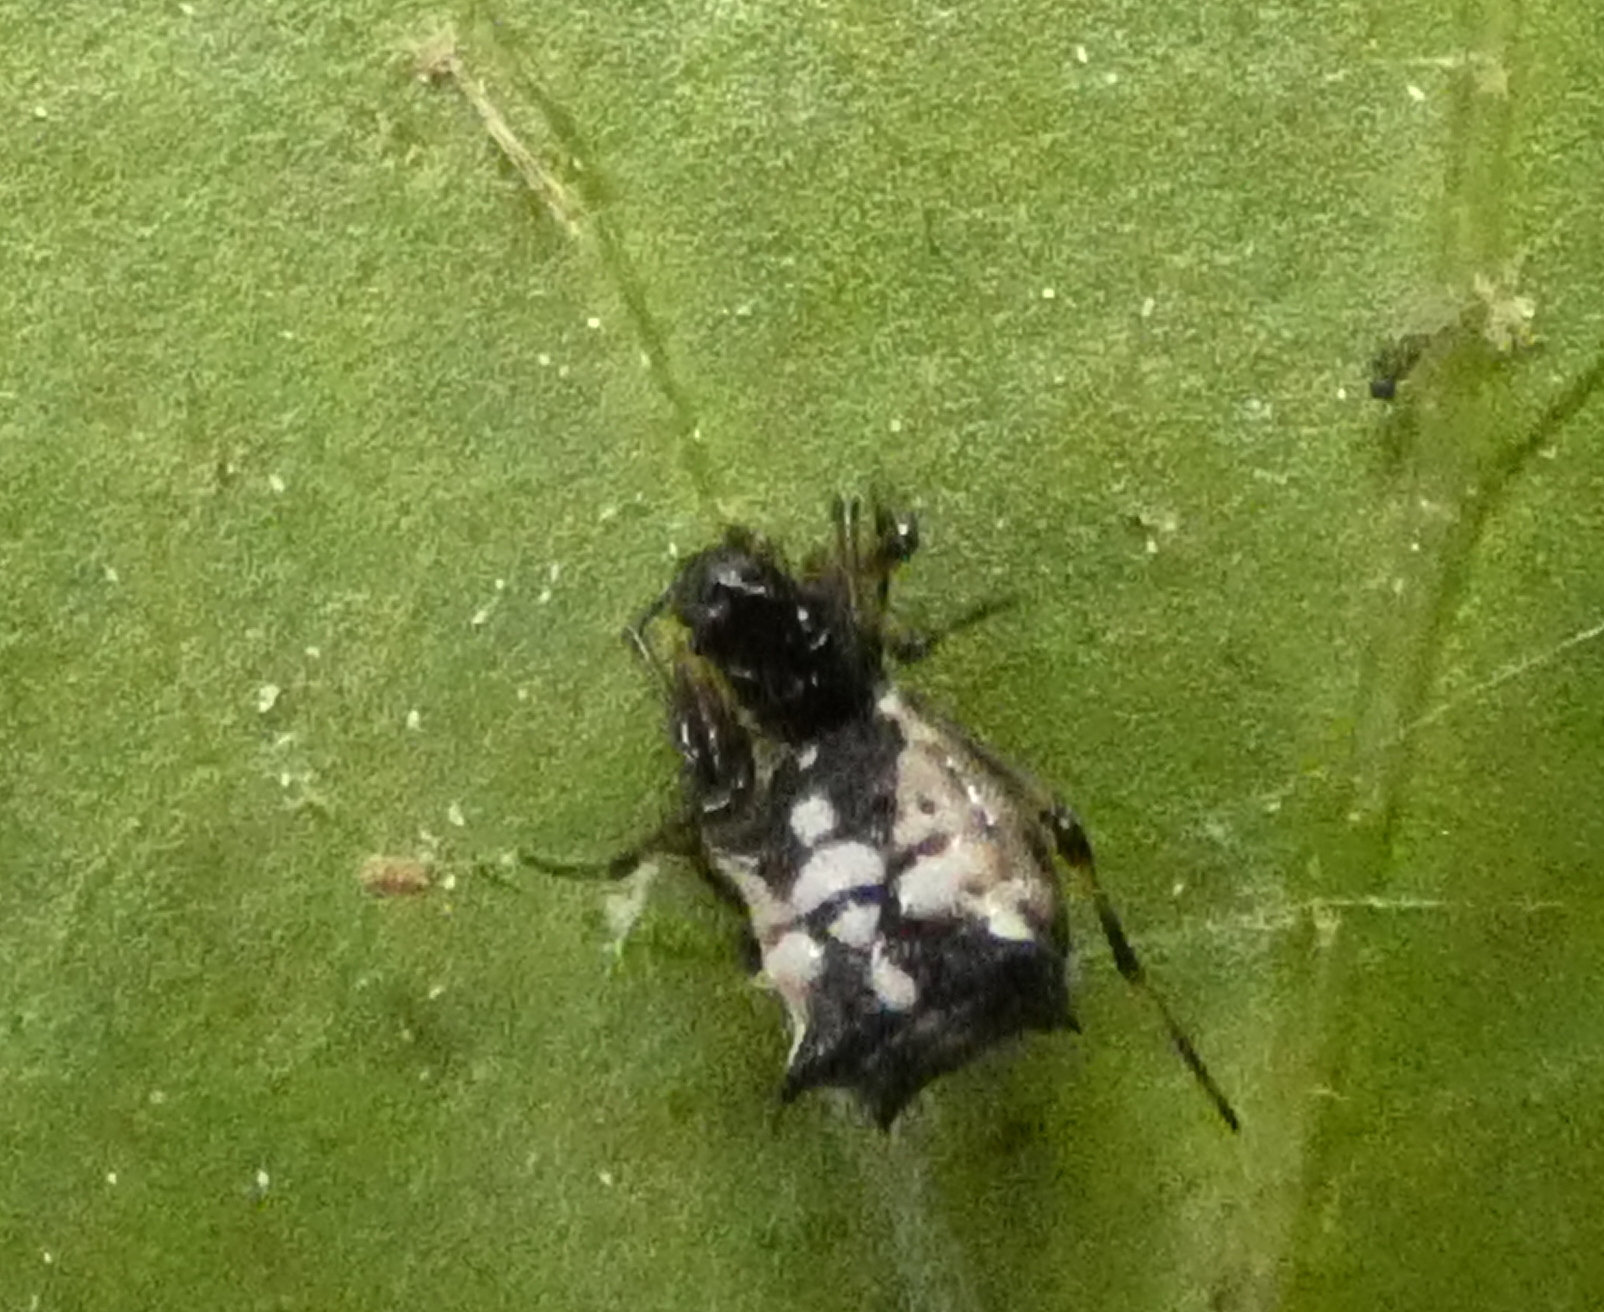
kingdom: Animalia
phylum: Arthropoda
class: Arachnida
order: Araneae
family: Araneidae
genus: Micrathena
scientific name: Micrathena picta
